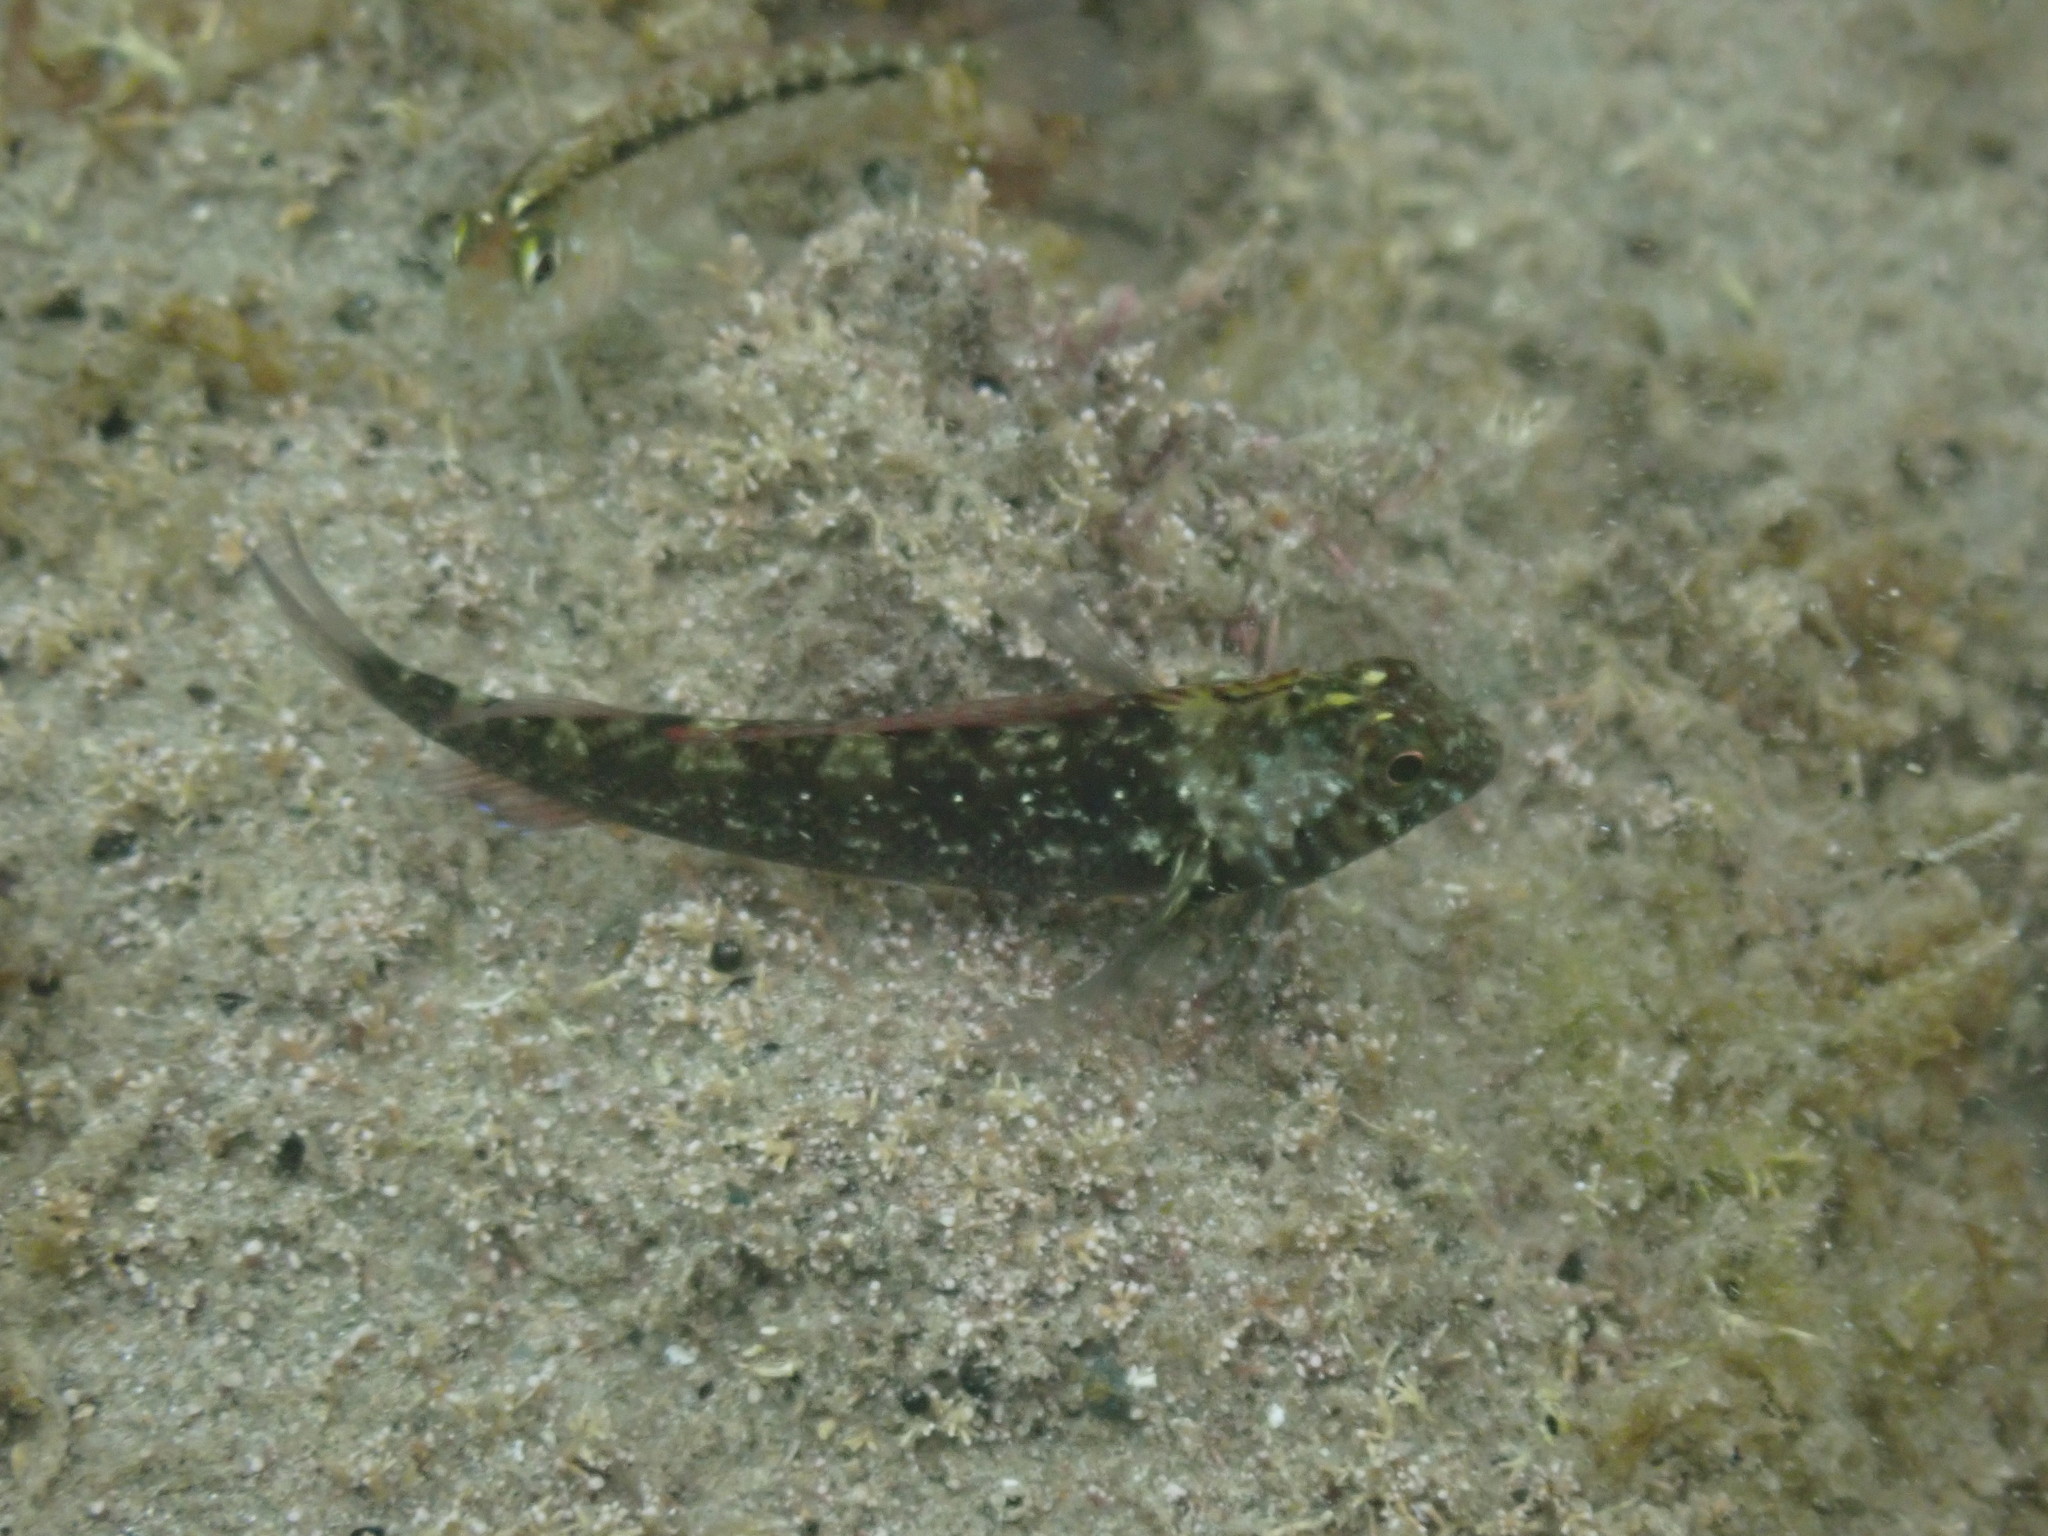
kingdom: Animalia
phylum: Chordata
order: Perciformes
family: Tripterygiidae
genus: Forsterygion
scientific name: Forsterygion lapillum
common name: Common triplefin
